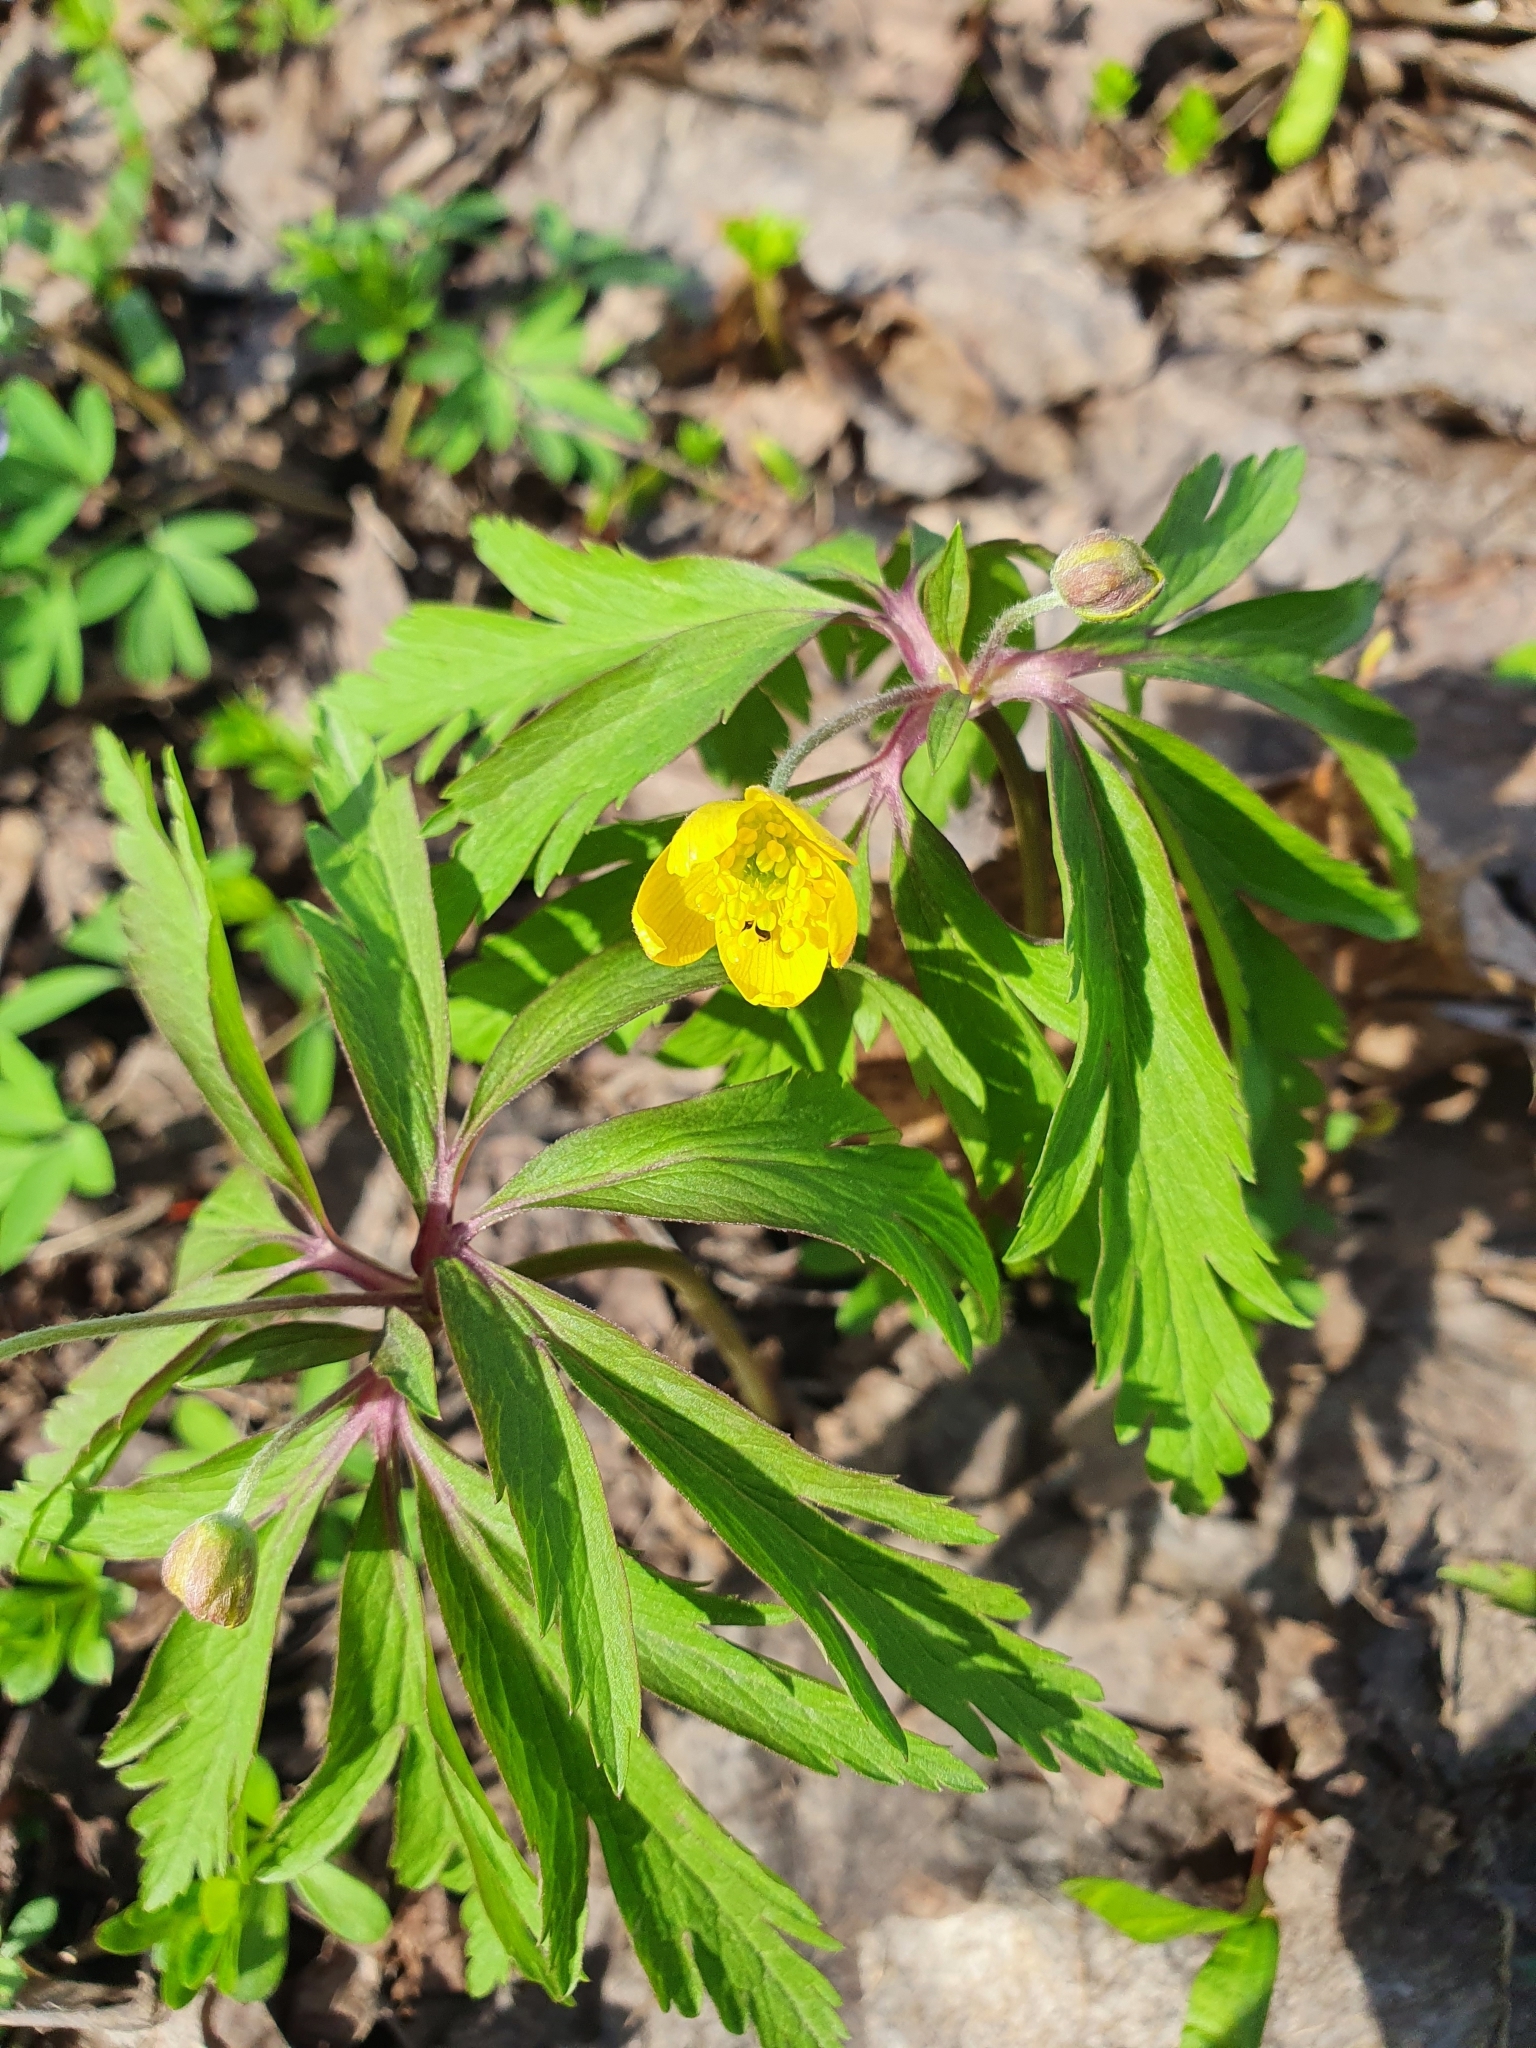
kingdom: Plantae
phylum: Tracheophyta
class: Magnoliopsida
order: Ranunculales
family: Ranunculaceae
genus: Anemone
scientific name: Anemone ranunculoides
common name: Yellow anemone
